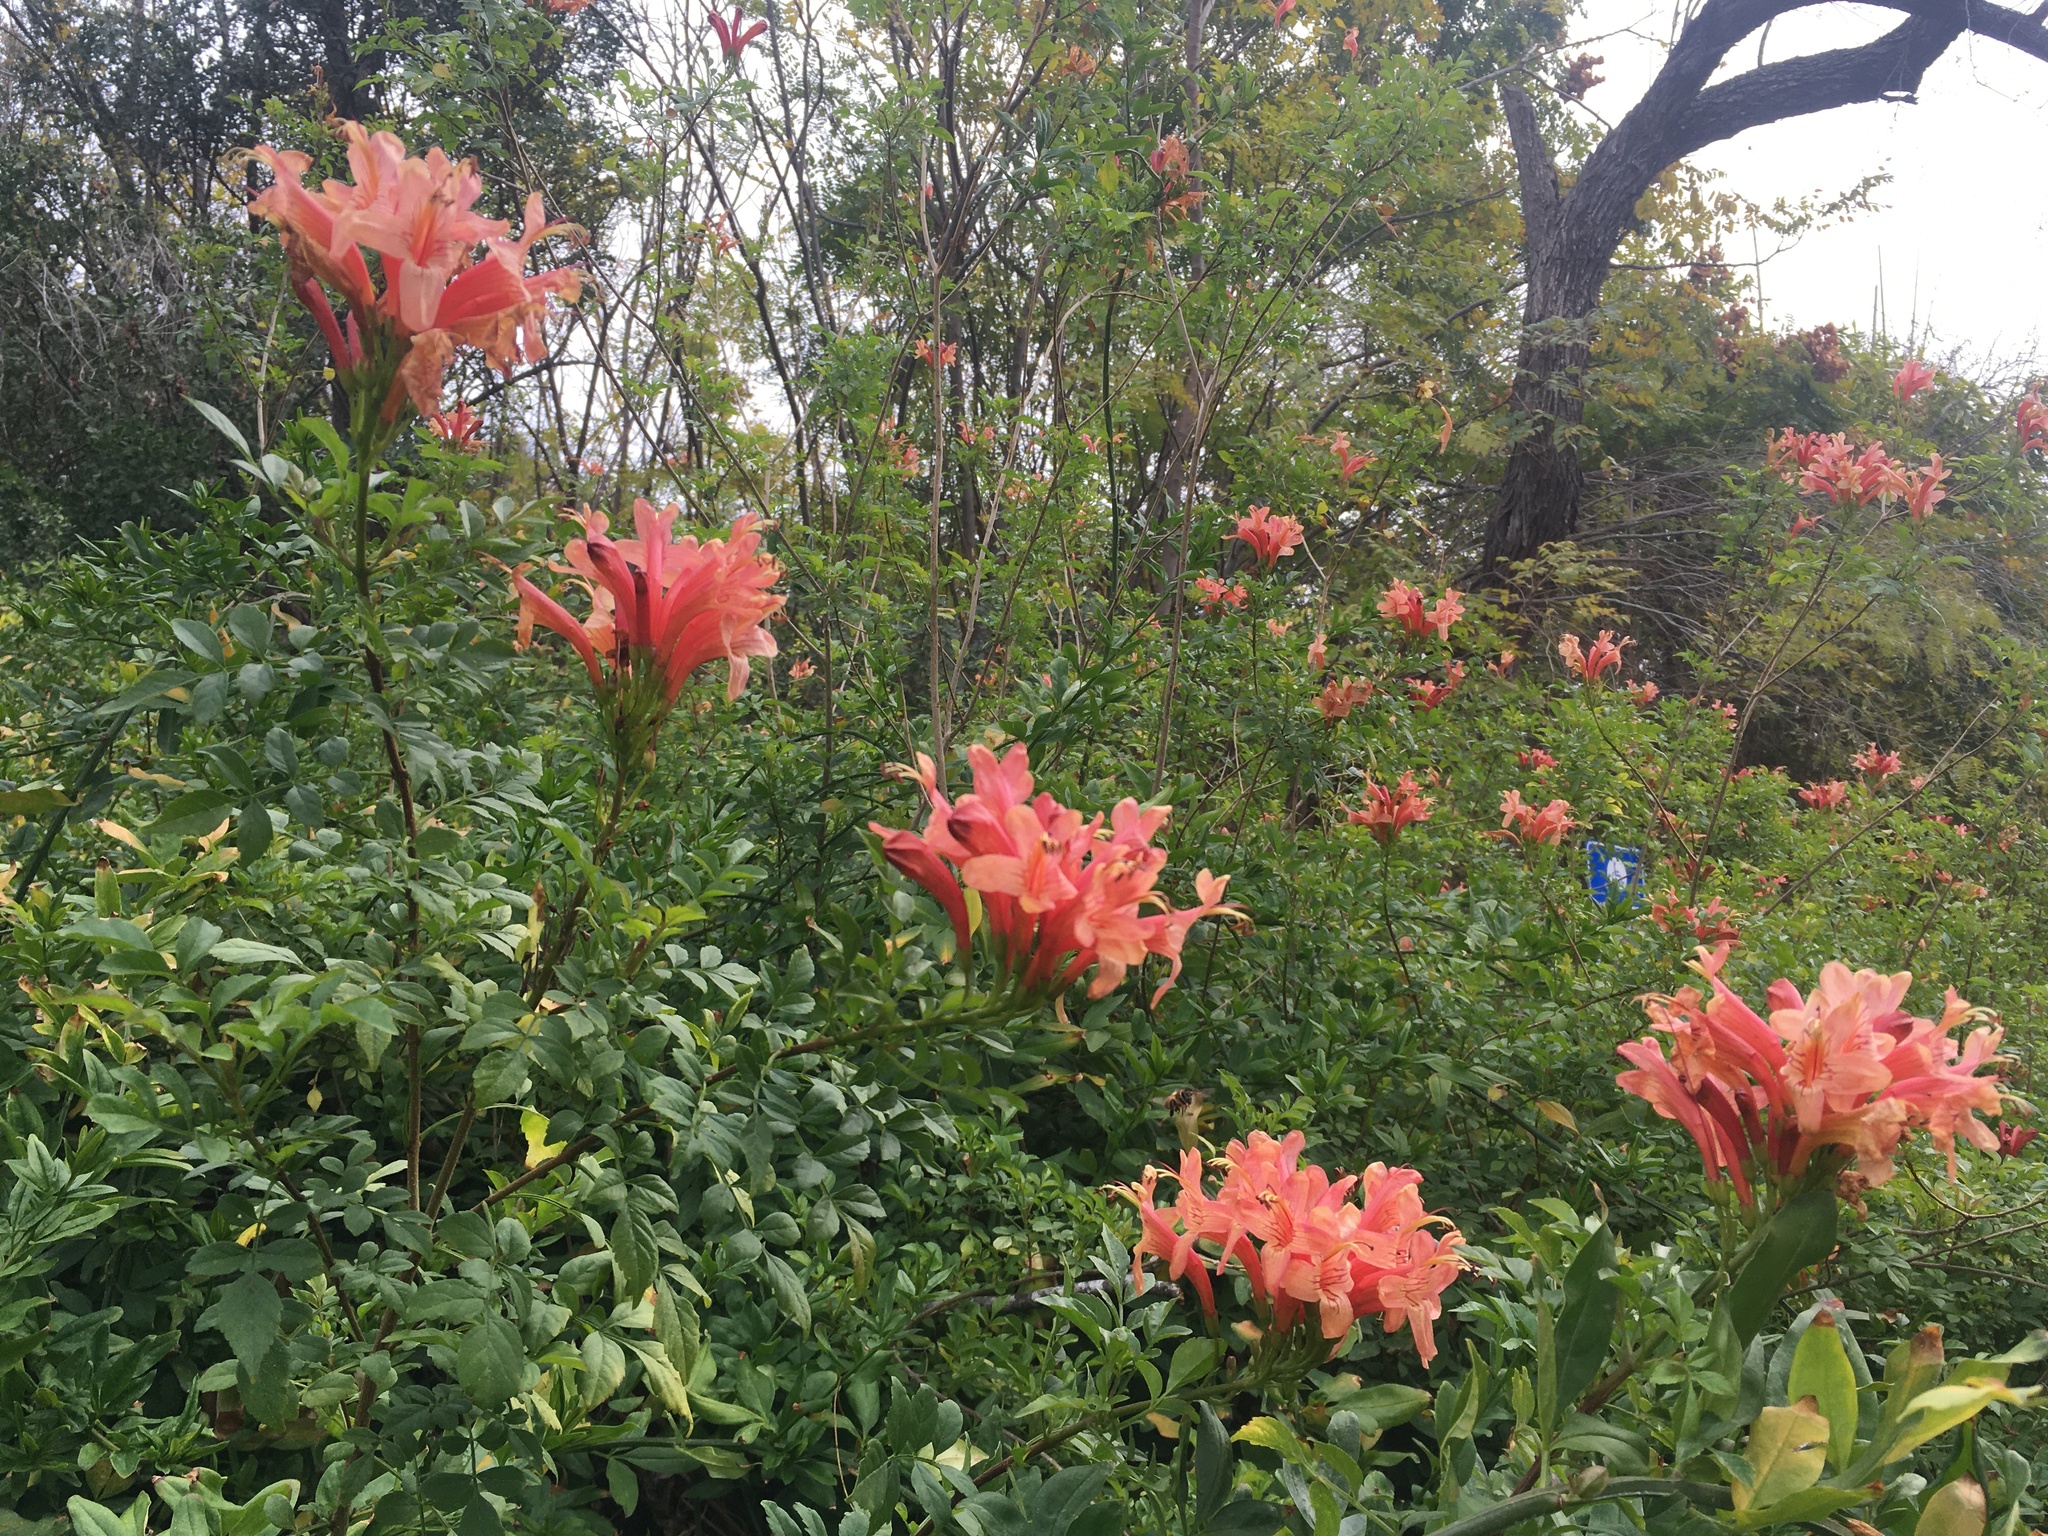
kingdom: Plantae
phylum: Tracheophyta
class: Magnoliopsida
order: Lamiales
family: Bignoniaceae
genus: Tecomaria
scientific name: Tecomaria capensis
